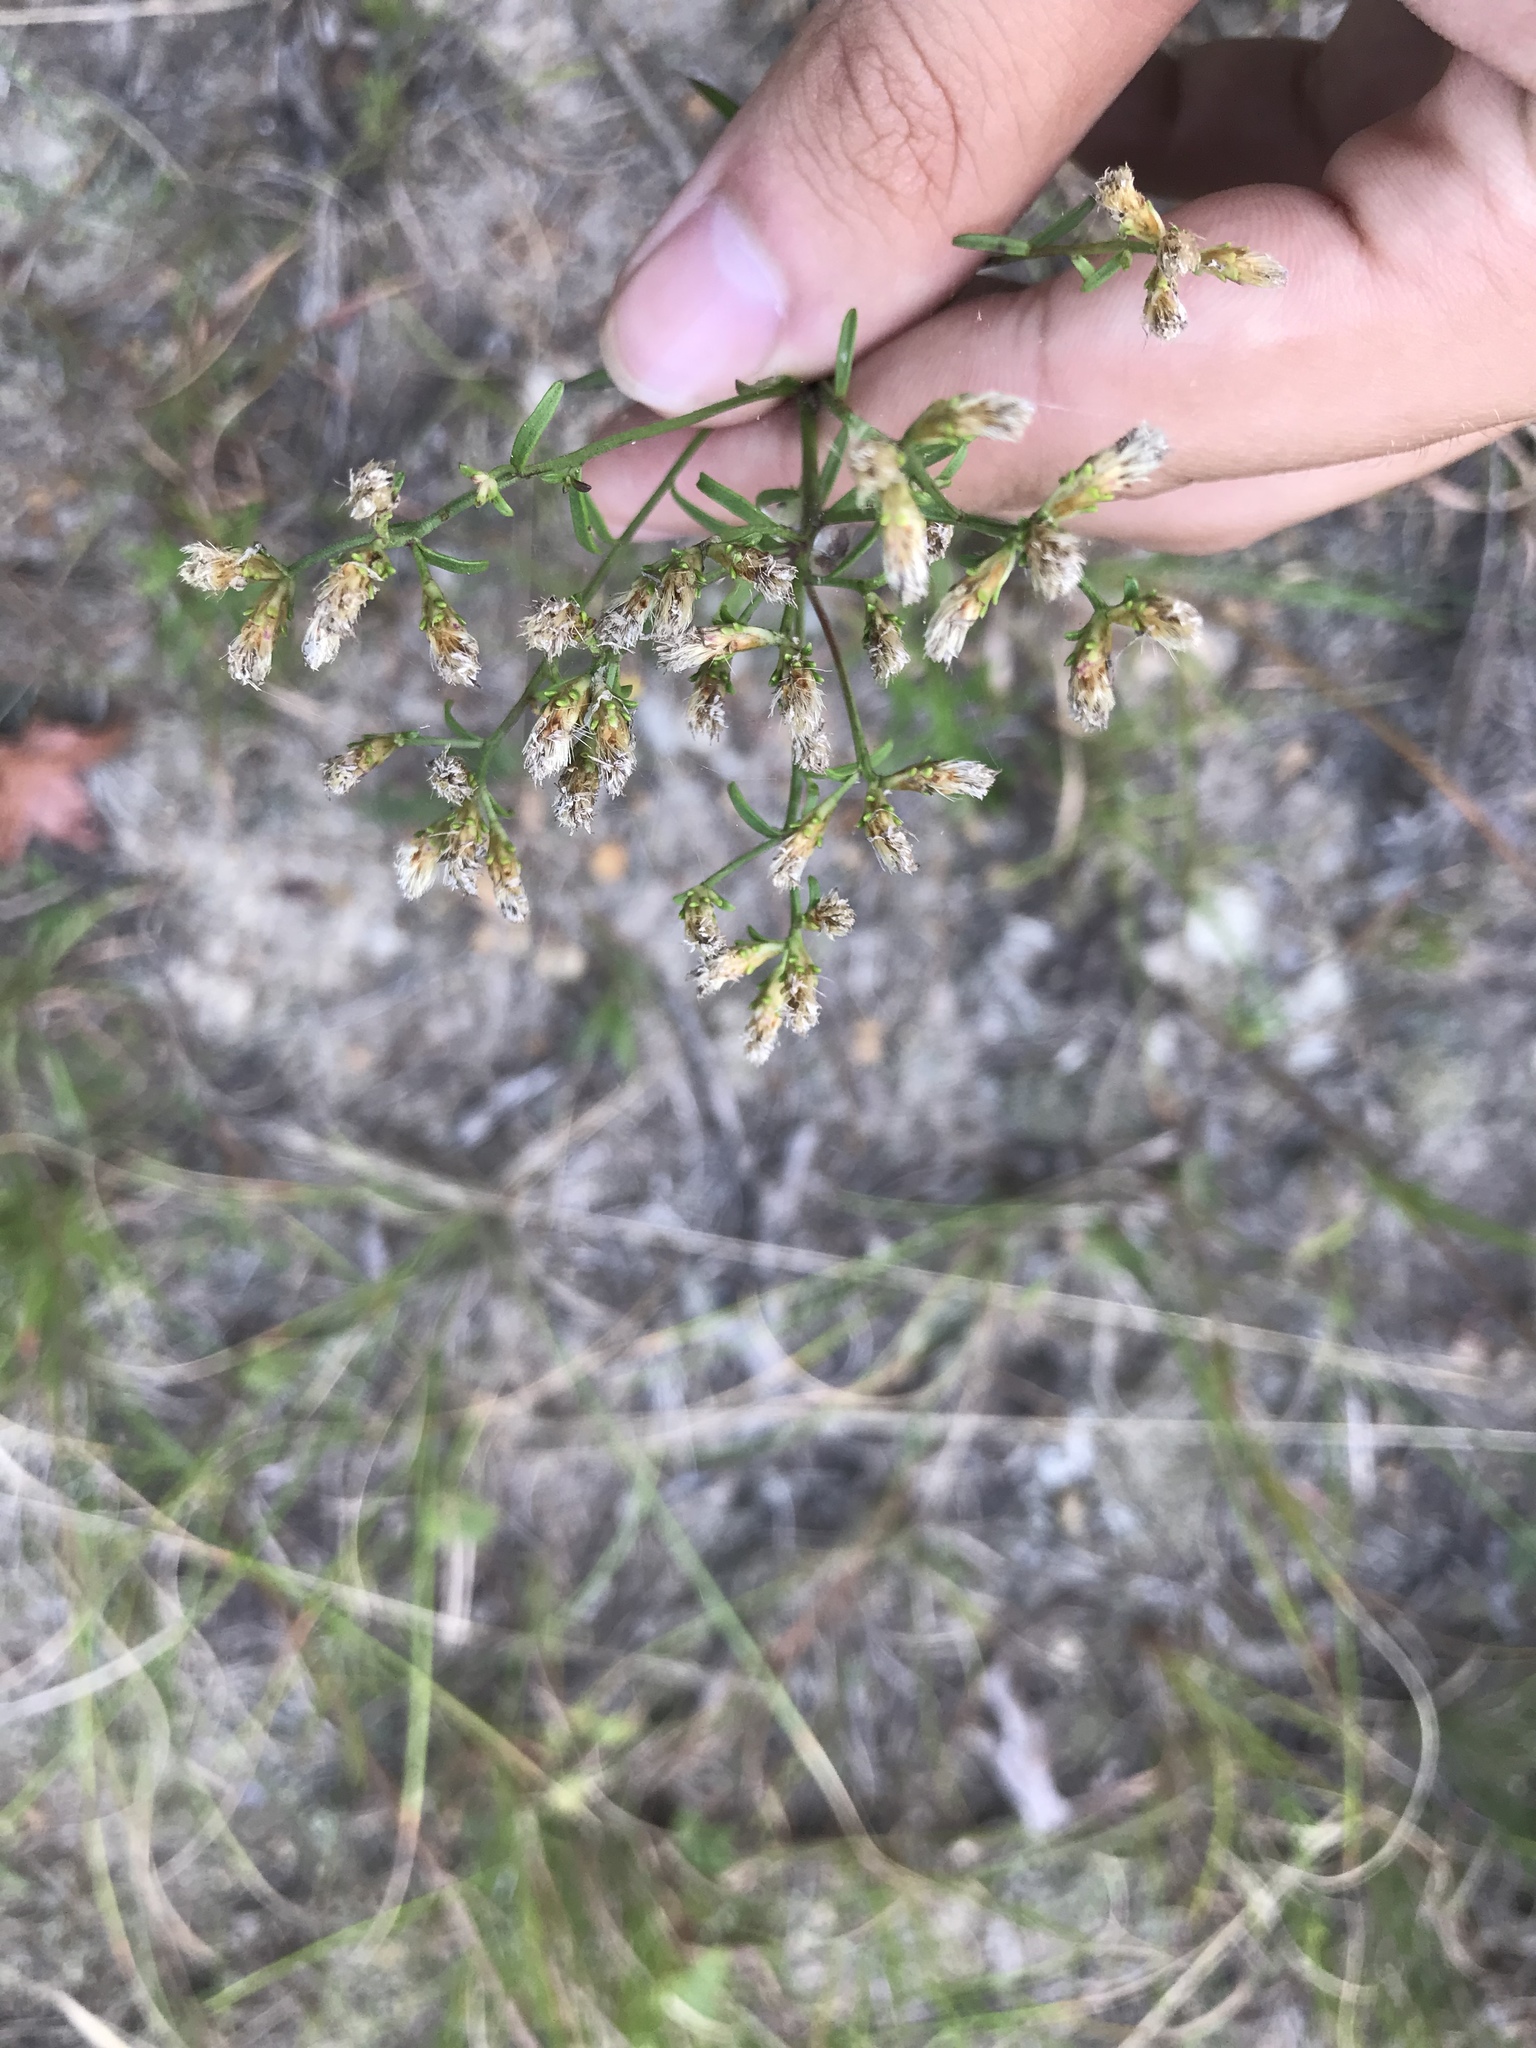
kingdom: Plantae
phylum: Tracheophyta
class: Magnoliopsida
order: Asterales
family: Asteraceae
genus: Sericocarpus
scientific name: Sericocarpus linifolius
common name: Narrow-leaf aster
